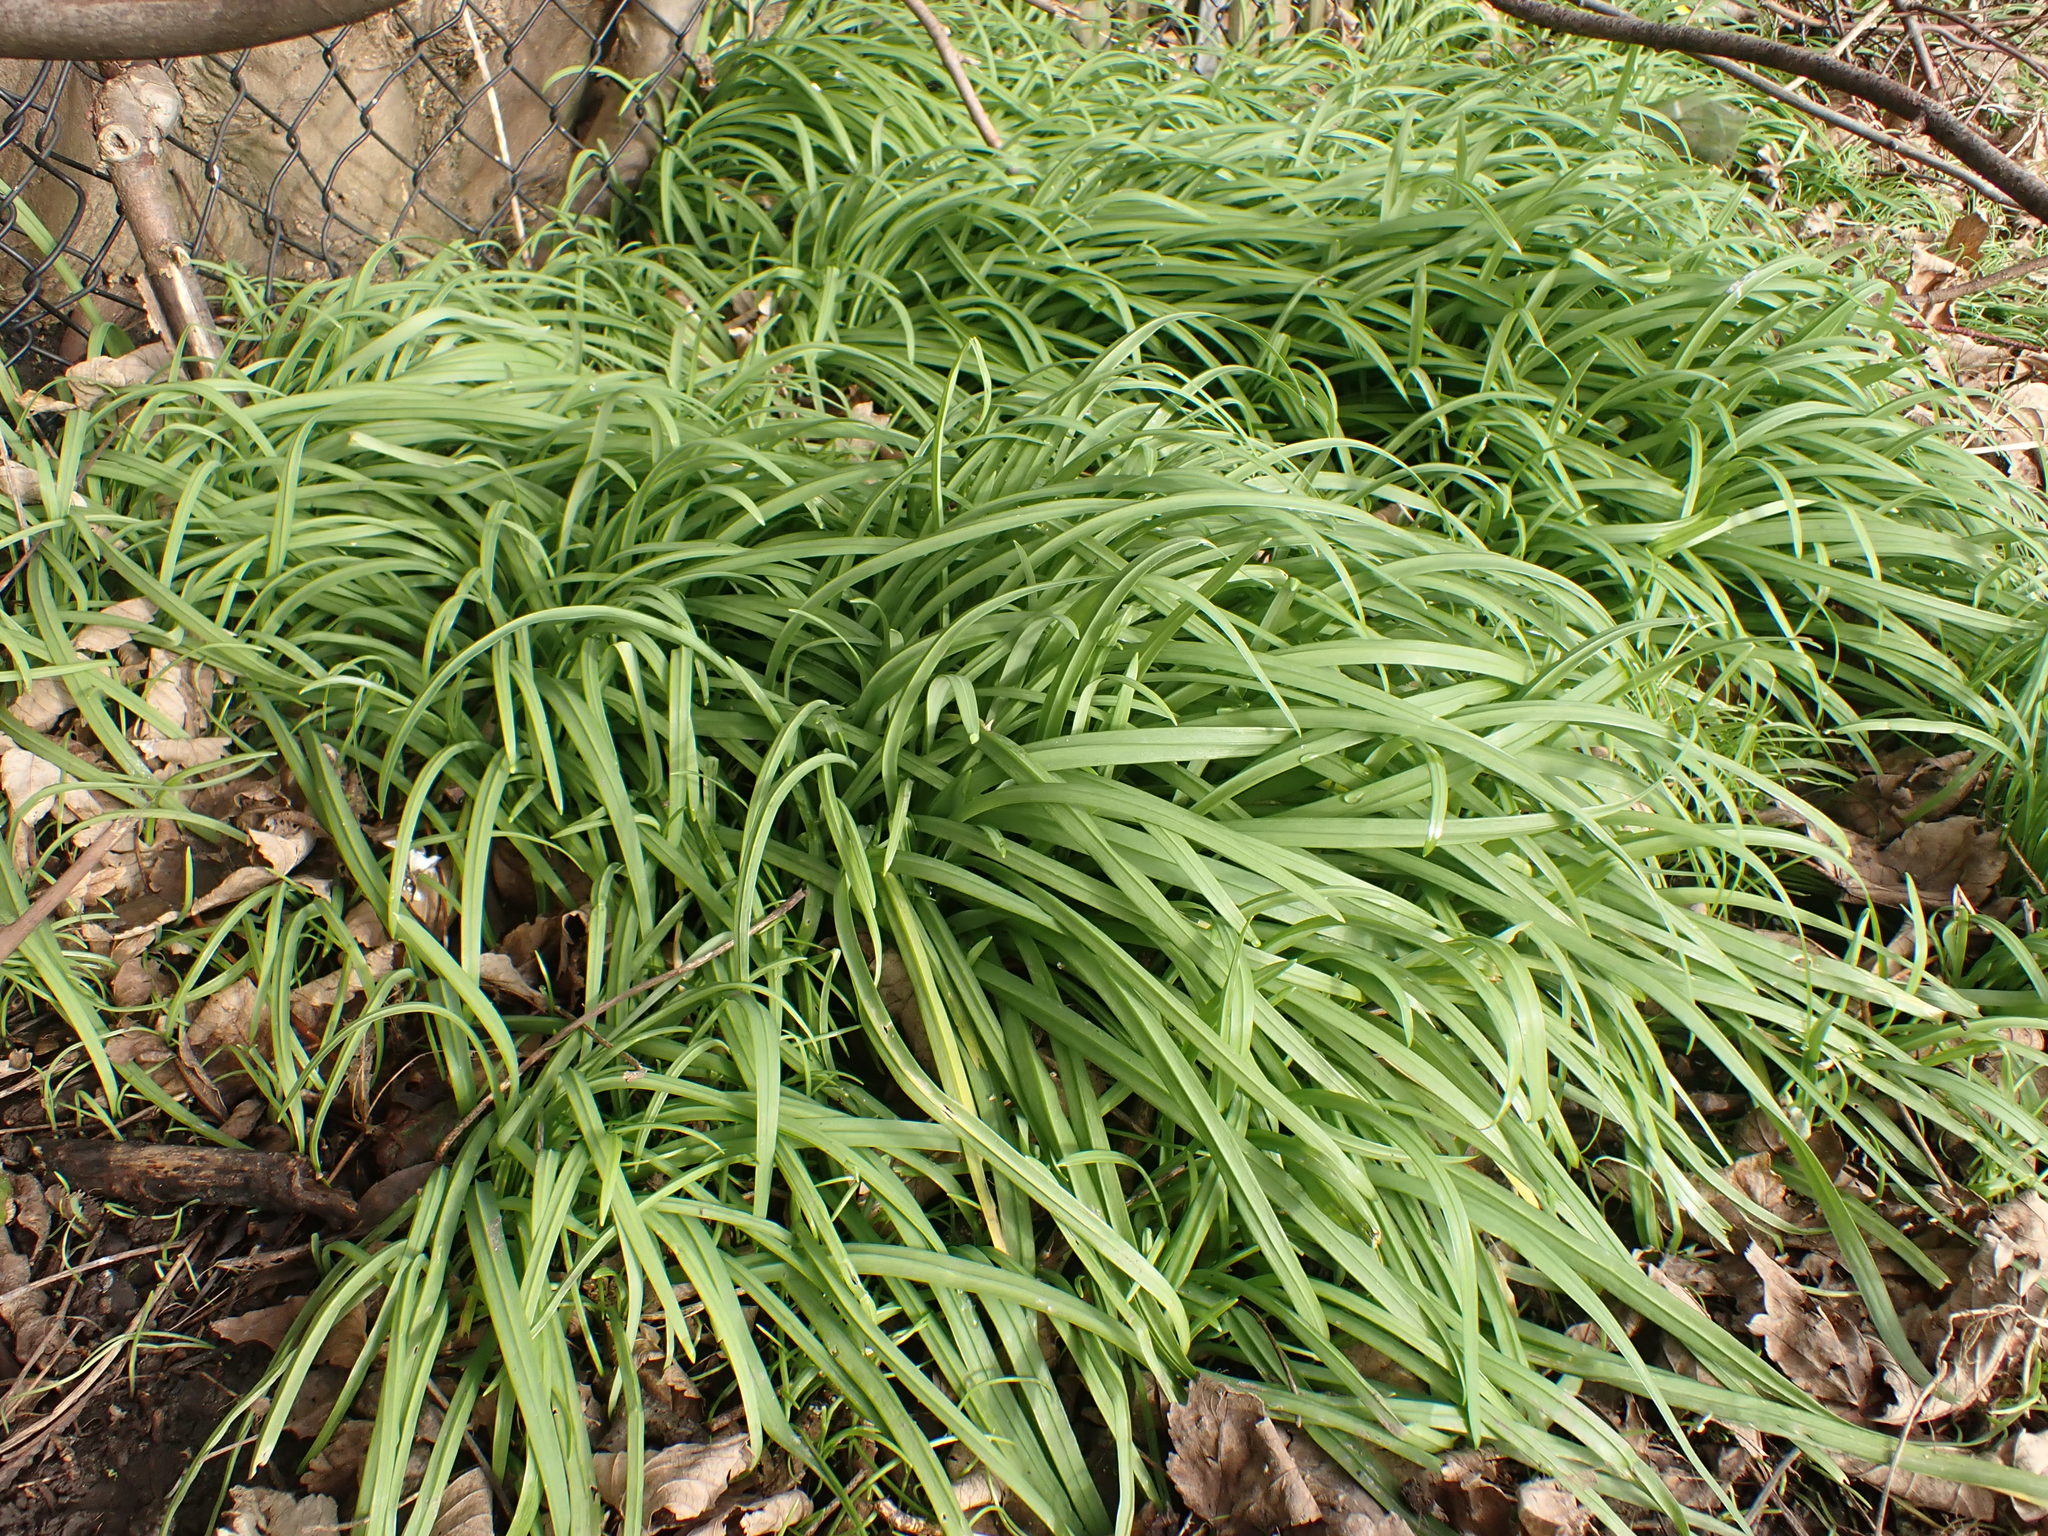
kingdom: Plantae
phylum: Tracheophyta
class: Liliopsida
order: Asparagales
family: Amaryllidaceae
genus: Allium
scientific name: Allium triquetrum
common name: Three-cornered garlic
